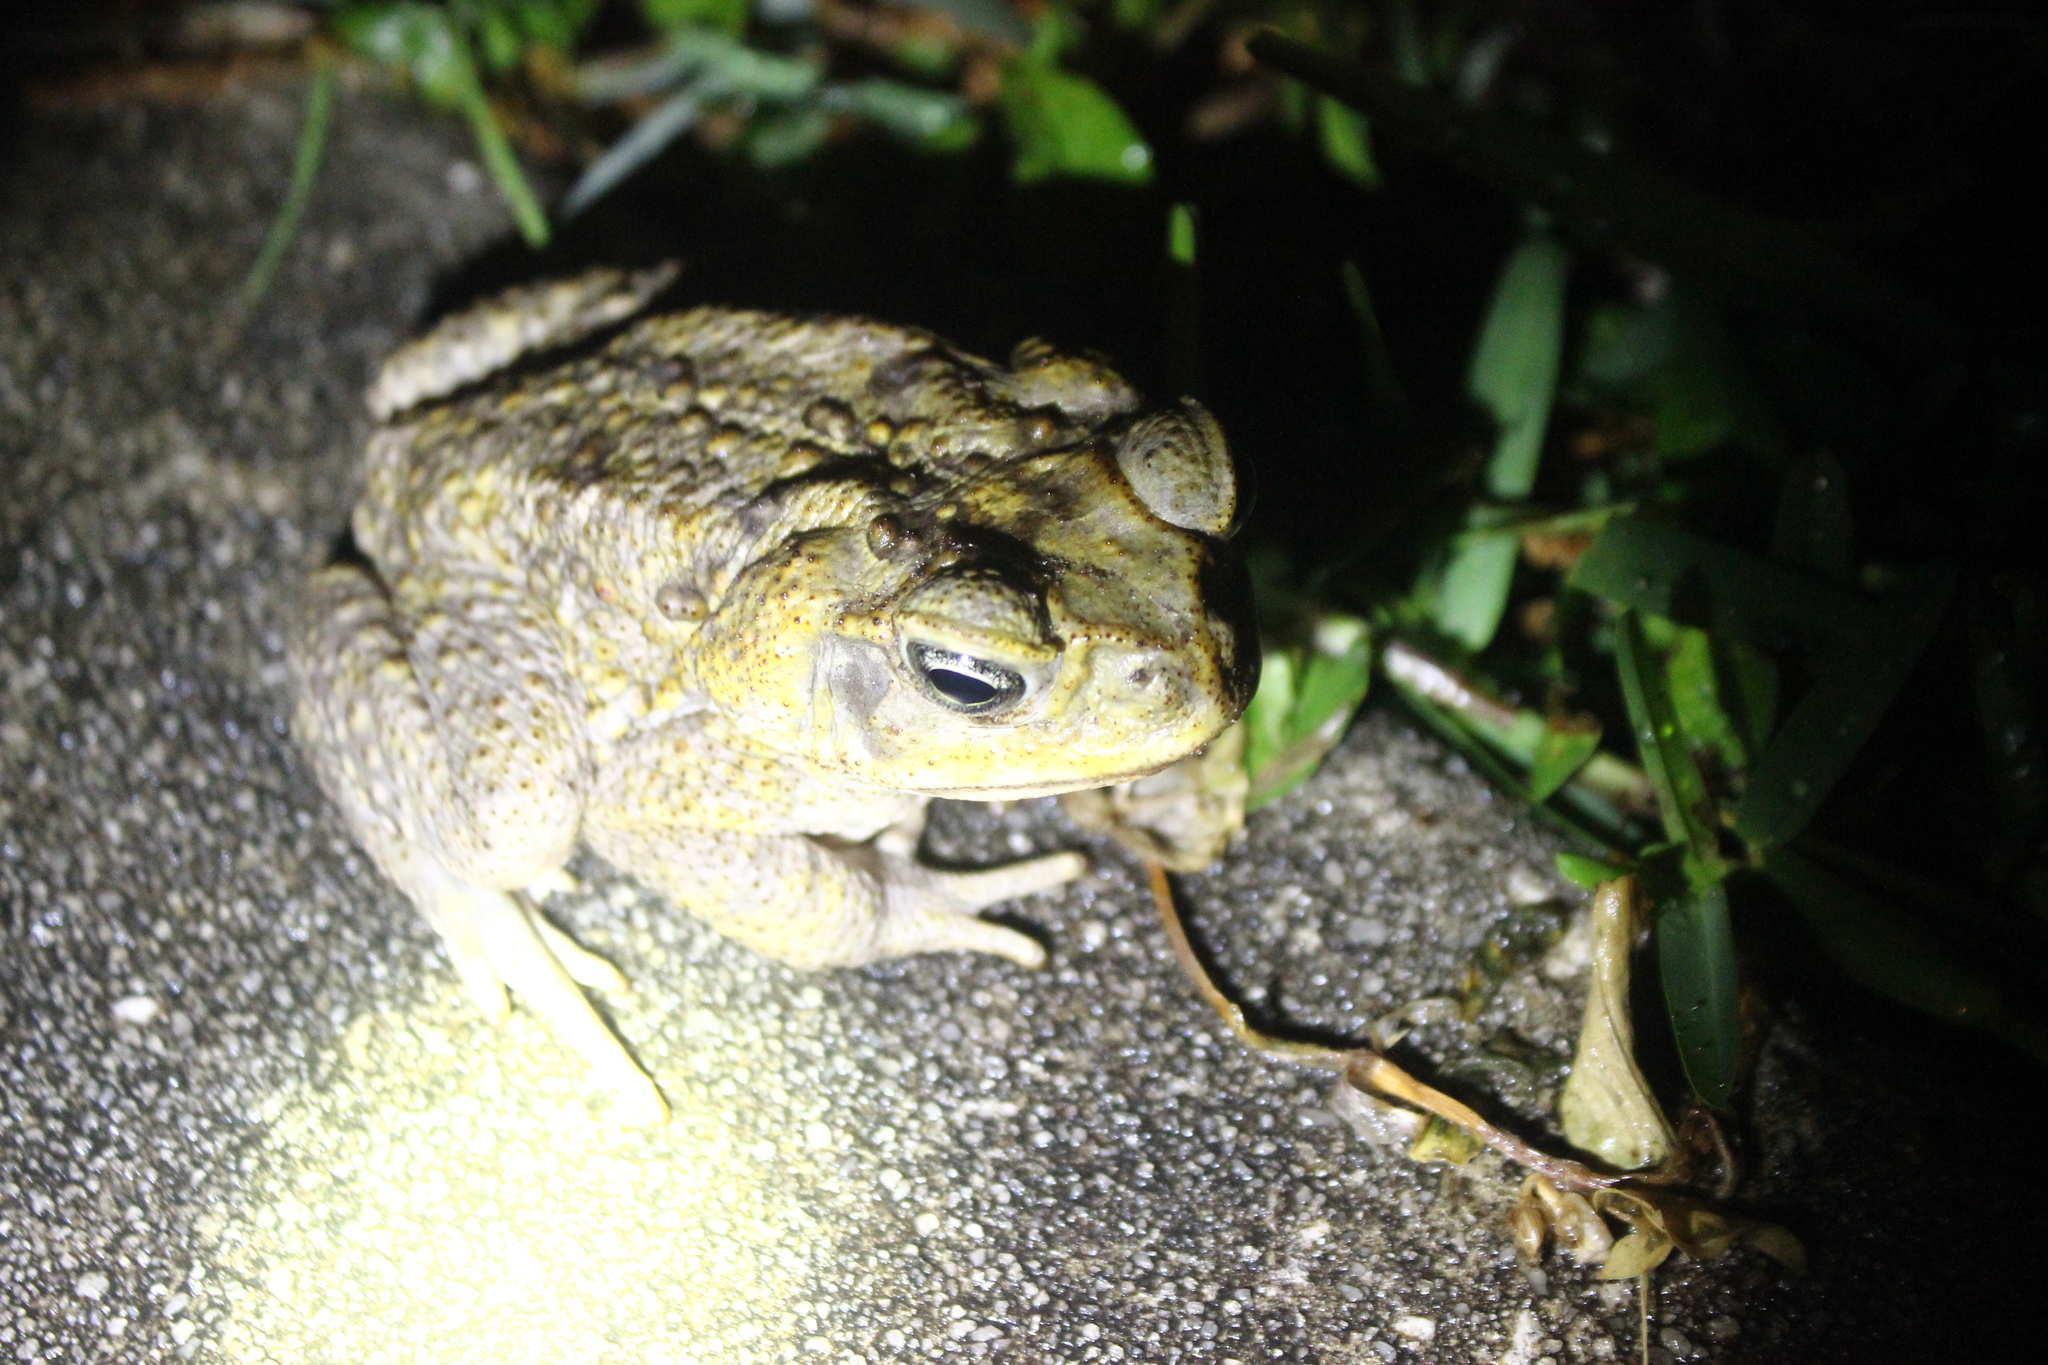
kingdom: Animalia
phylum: Chordata
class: Amphibia
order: Anura
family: Bufonidae
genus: Rhinella
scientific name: Rhinella marina
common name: Cane toad
